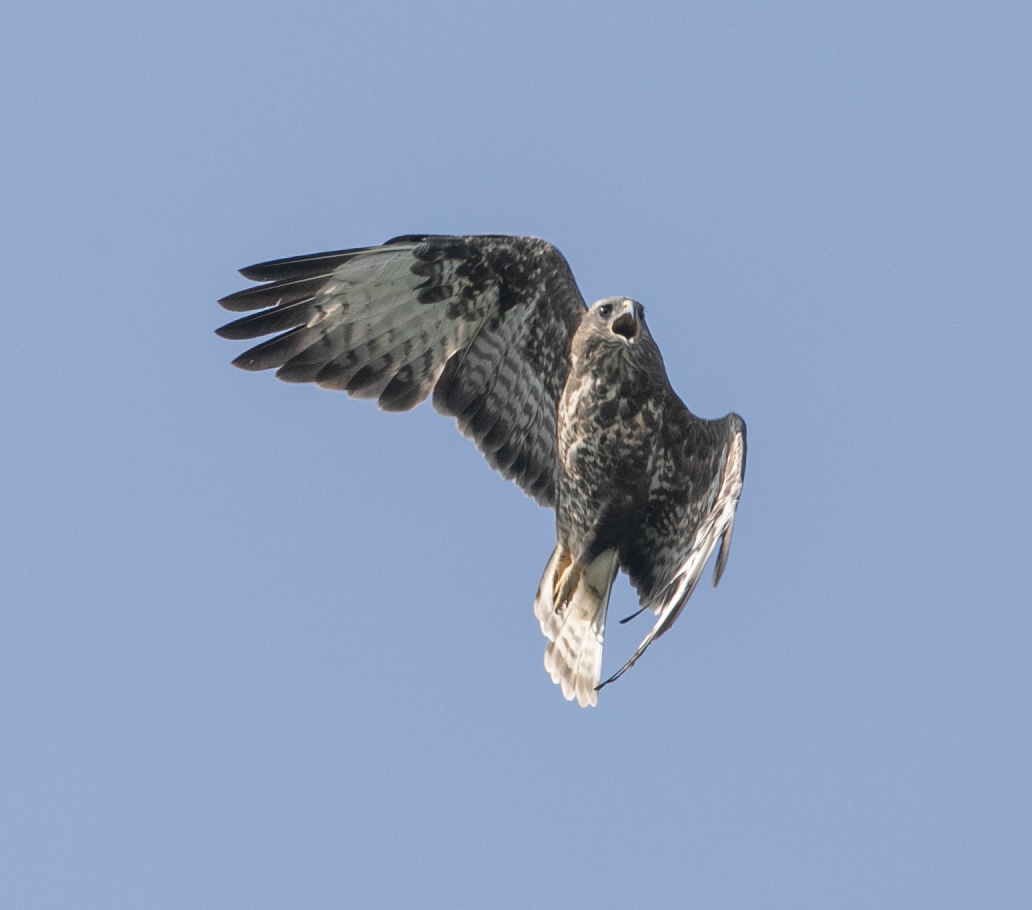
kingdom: Animalia
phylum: Chordata
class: Aves
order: Accipitriformes
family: Accipitridae
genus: Buteo
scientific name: Buteo buteo
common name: Common buzzard
